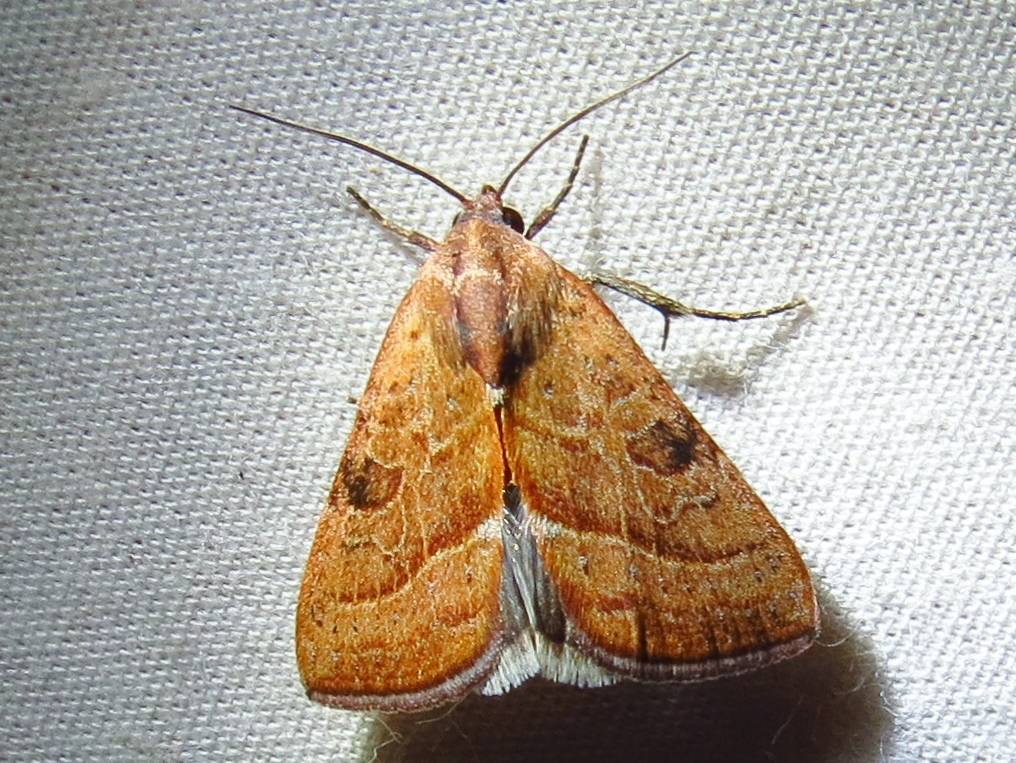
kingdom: Animalia
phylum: Arthropoda
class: Insecta
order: Lepidoptera
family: Noctuidae
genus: Galgula
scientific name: Galgula partita
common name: Wedgeling
